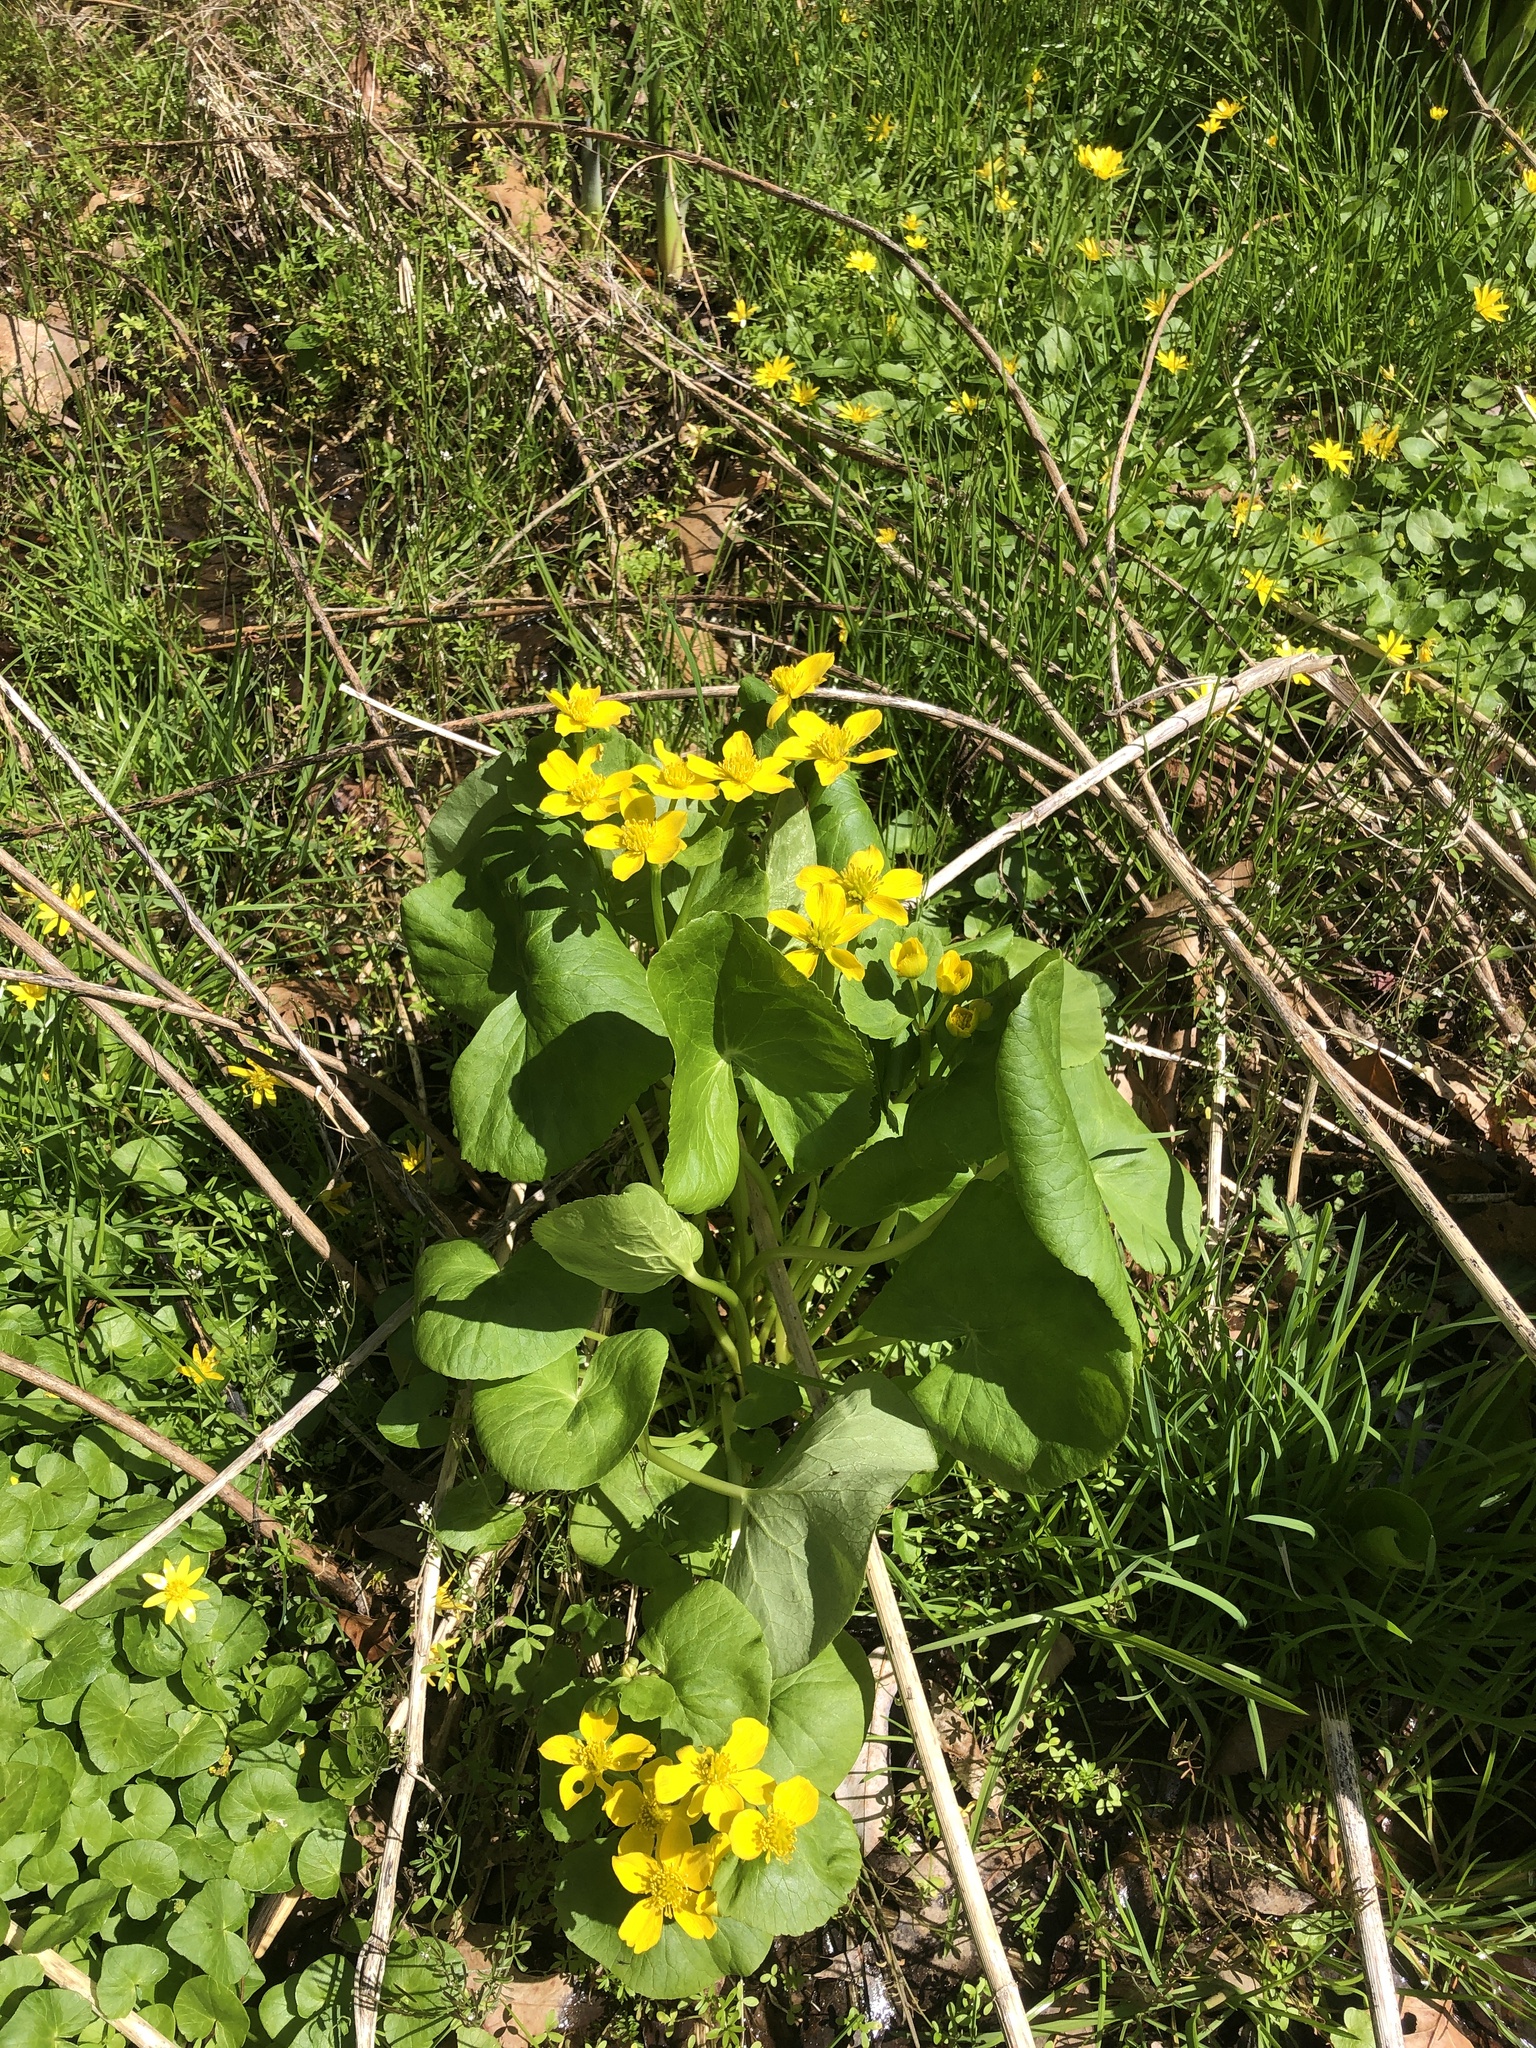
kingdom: Plantae
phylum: Tracheophyta
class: Magnoliopsida
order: Ranunculales
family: Ranunculaceae
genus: Caltha
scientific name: Caltha palustris
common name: Marsh marigold
